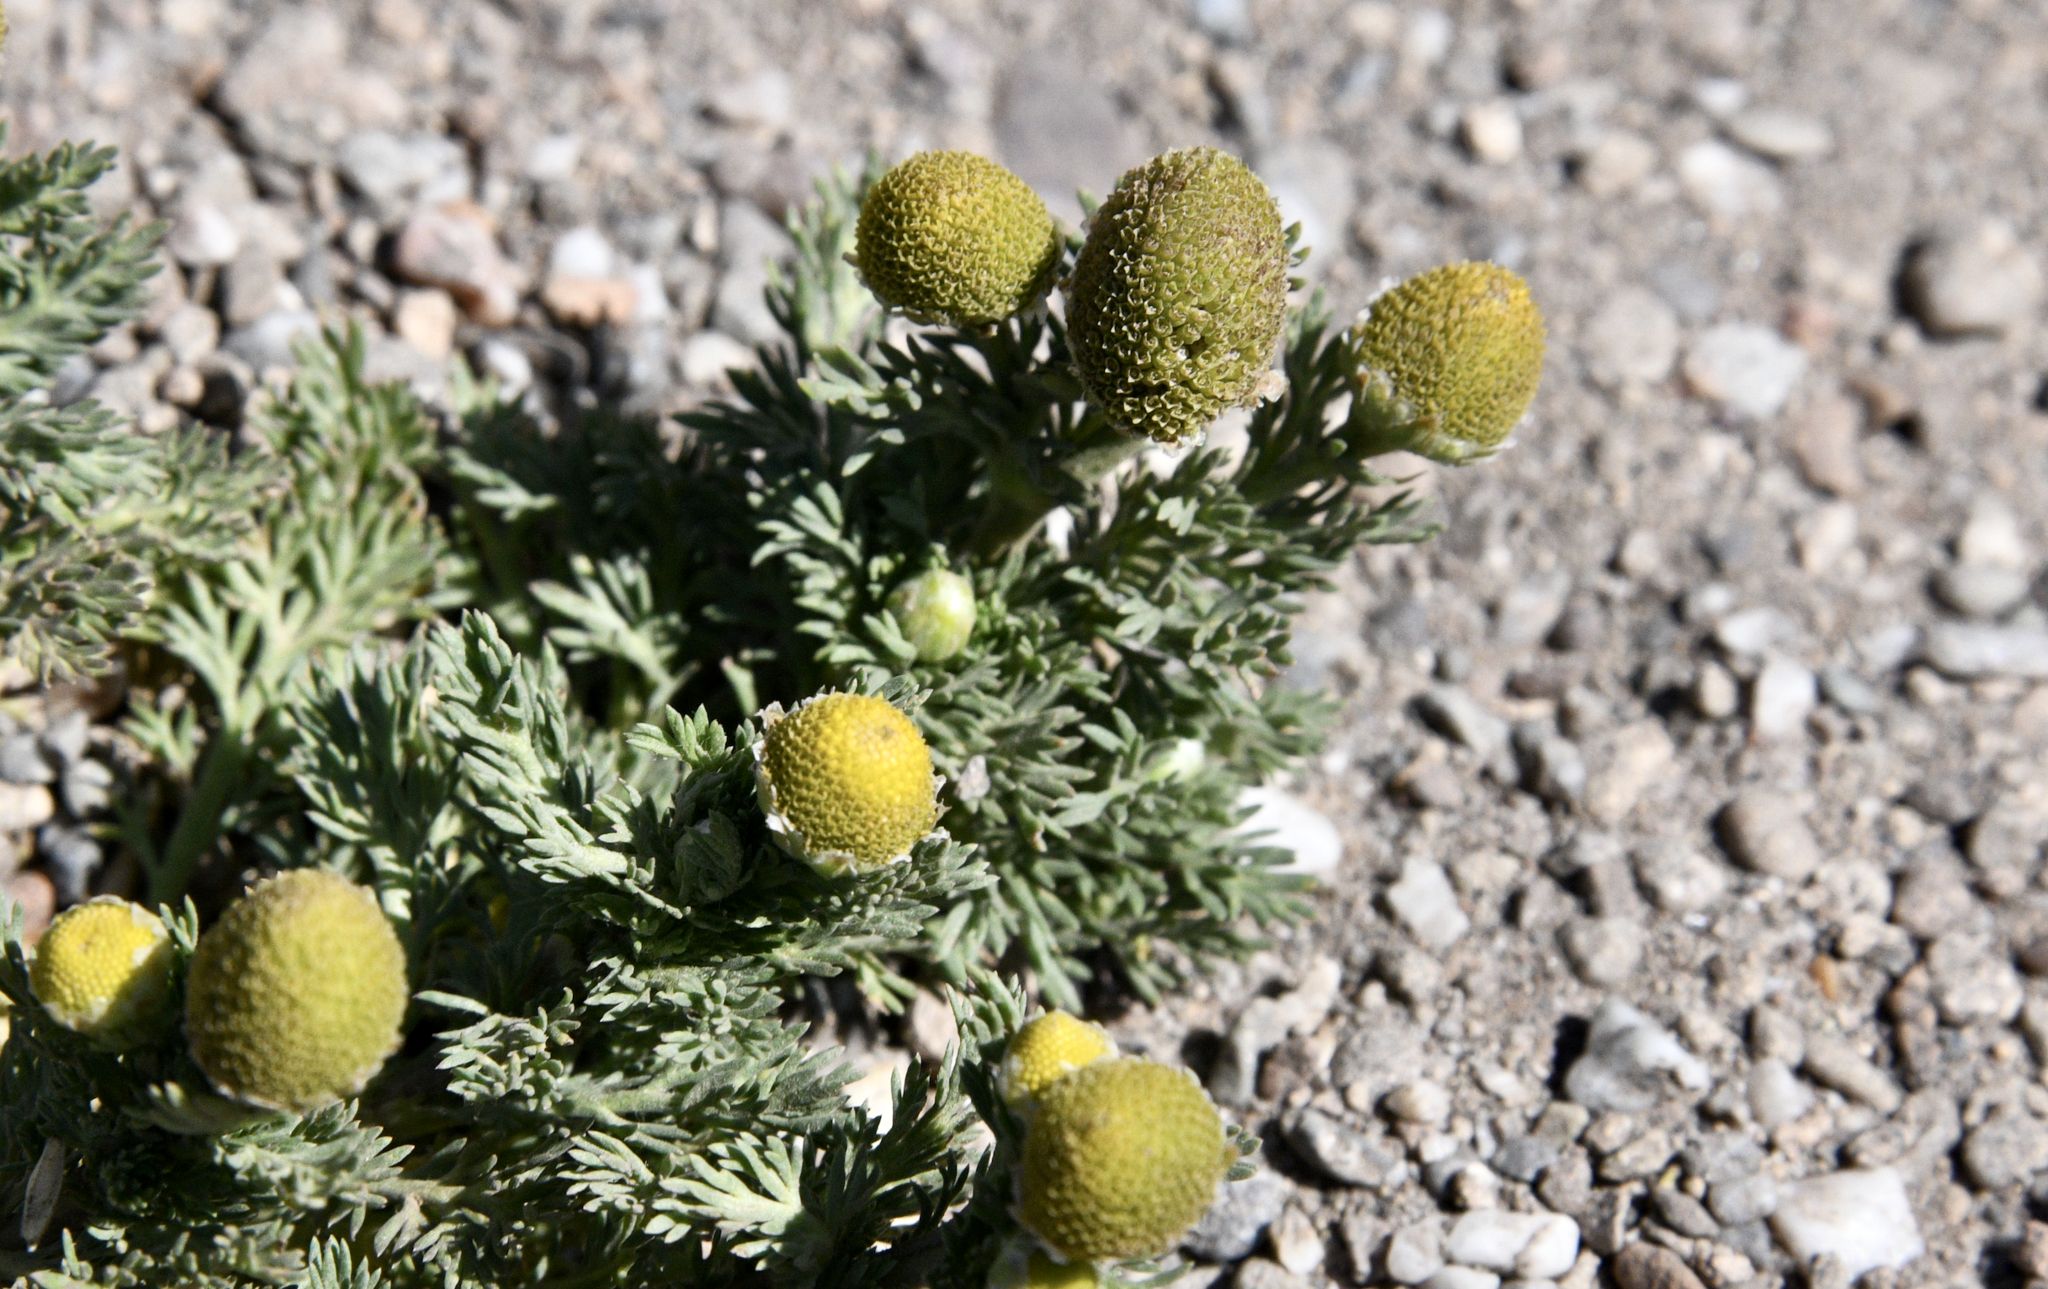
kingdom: Plantae
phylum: Tracheophyta
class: Magnoliopsida
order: Asterales
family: Asteraceae
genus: Matricaria
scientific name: Matricaria discoidea
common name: Disc mayweed
